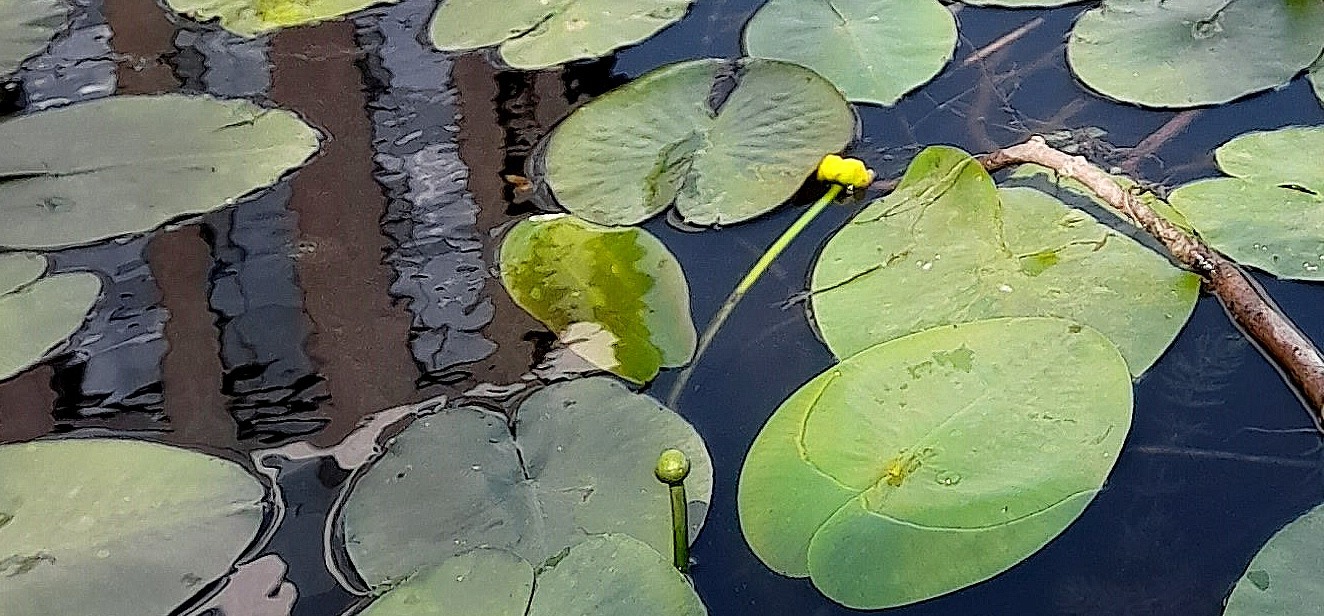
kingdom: Plantae
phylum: Tracheophyta
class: Magnoliopsida
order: Nymphaeales
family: Nymphaeaceae
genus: Nuphar
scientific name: Nuphar lutea
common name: Yellow water-lily
